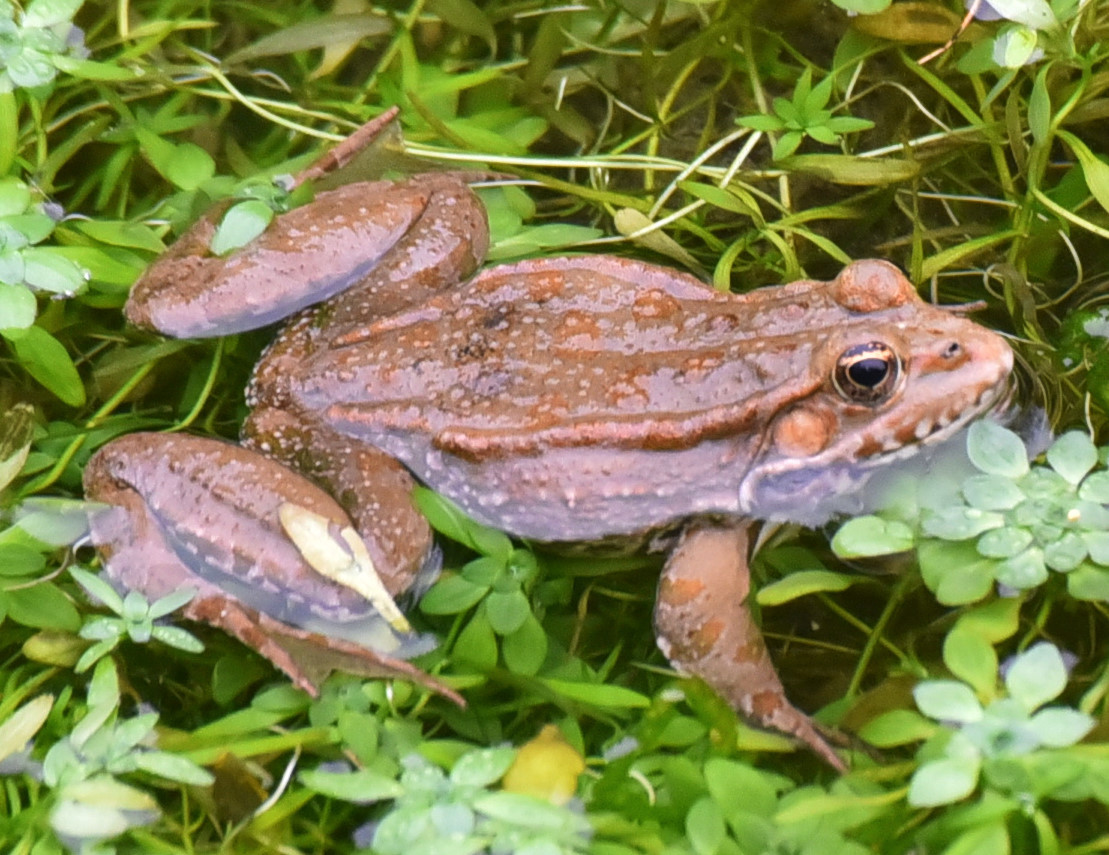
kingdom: Animalia
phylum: Chordata
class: Amphibia
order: Anura
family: Ranidae
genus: Pelophylax
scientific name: Pelophylax
